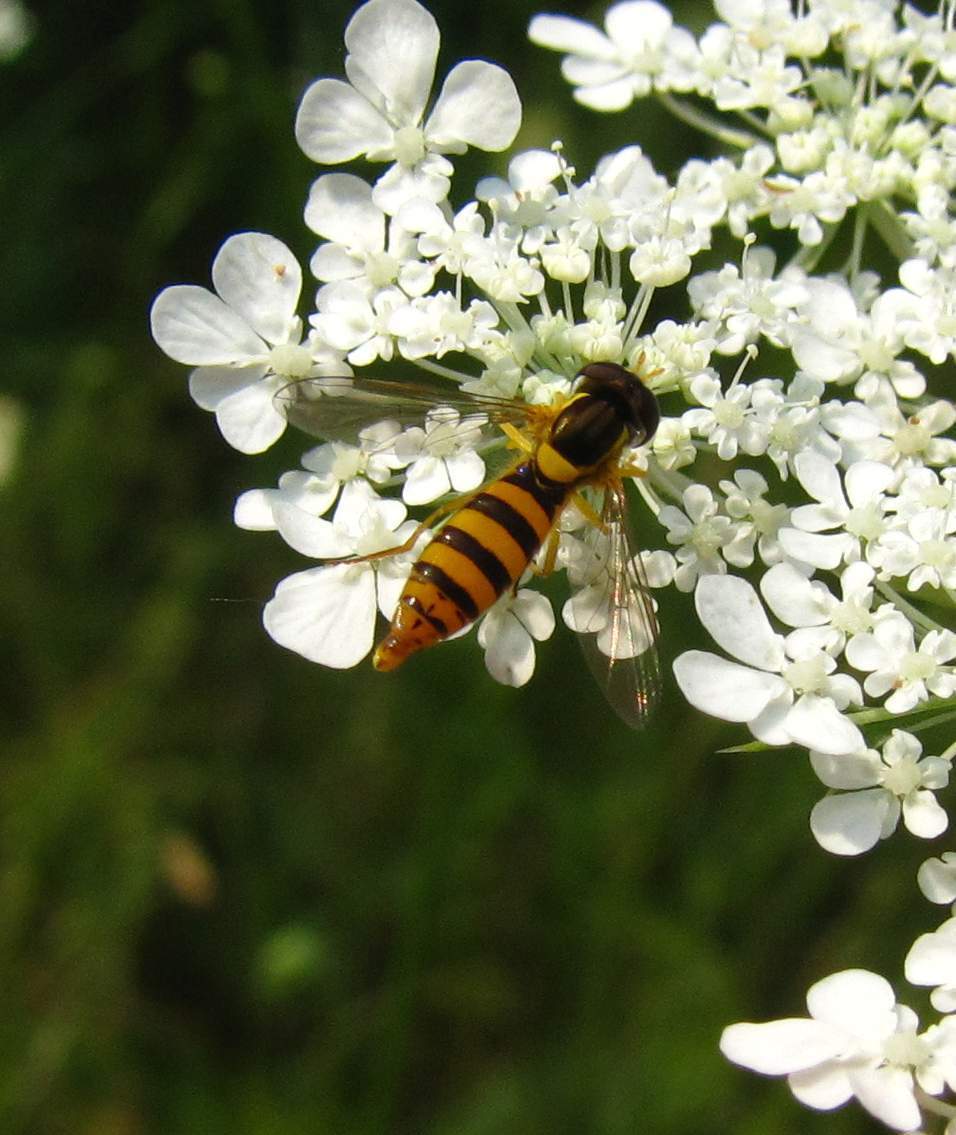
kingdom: Animalia
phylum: Arthropoda
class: Insecta
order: Diptera
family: Syrphidae
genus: Sphaerophoria
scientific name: Sphaerophoria
